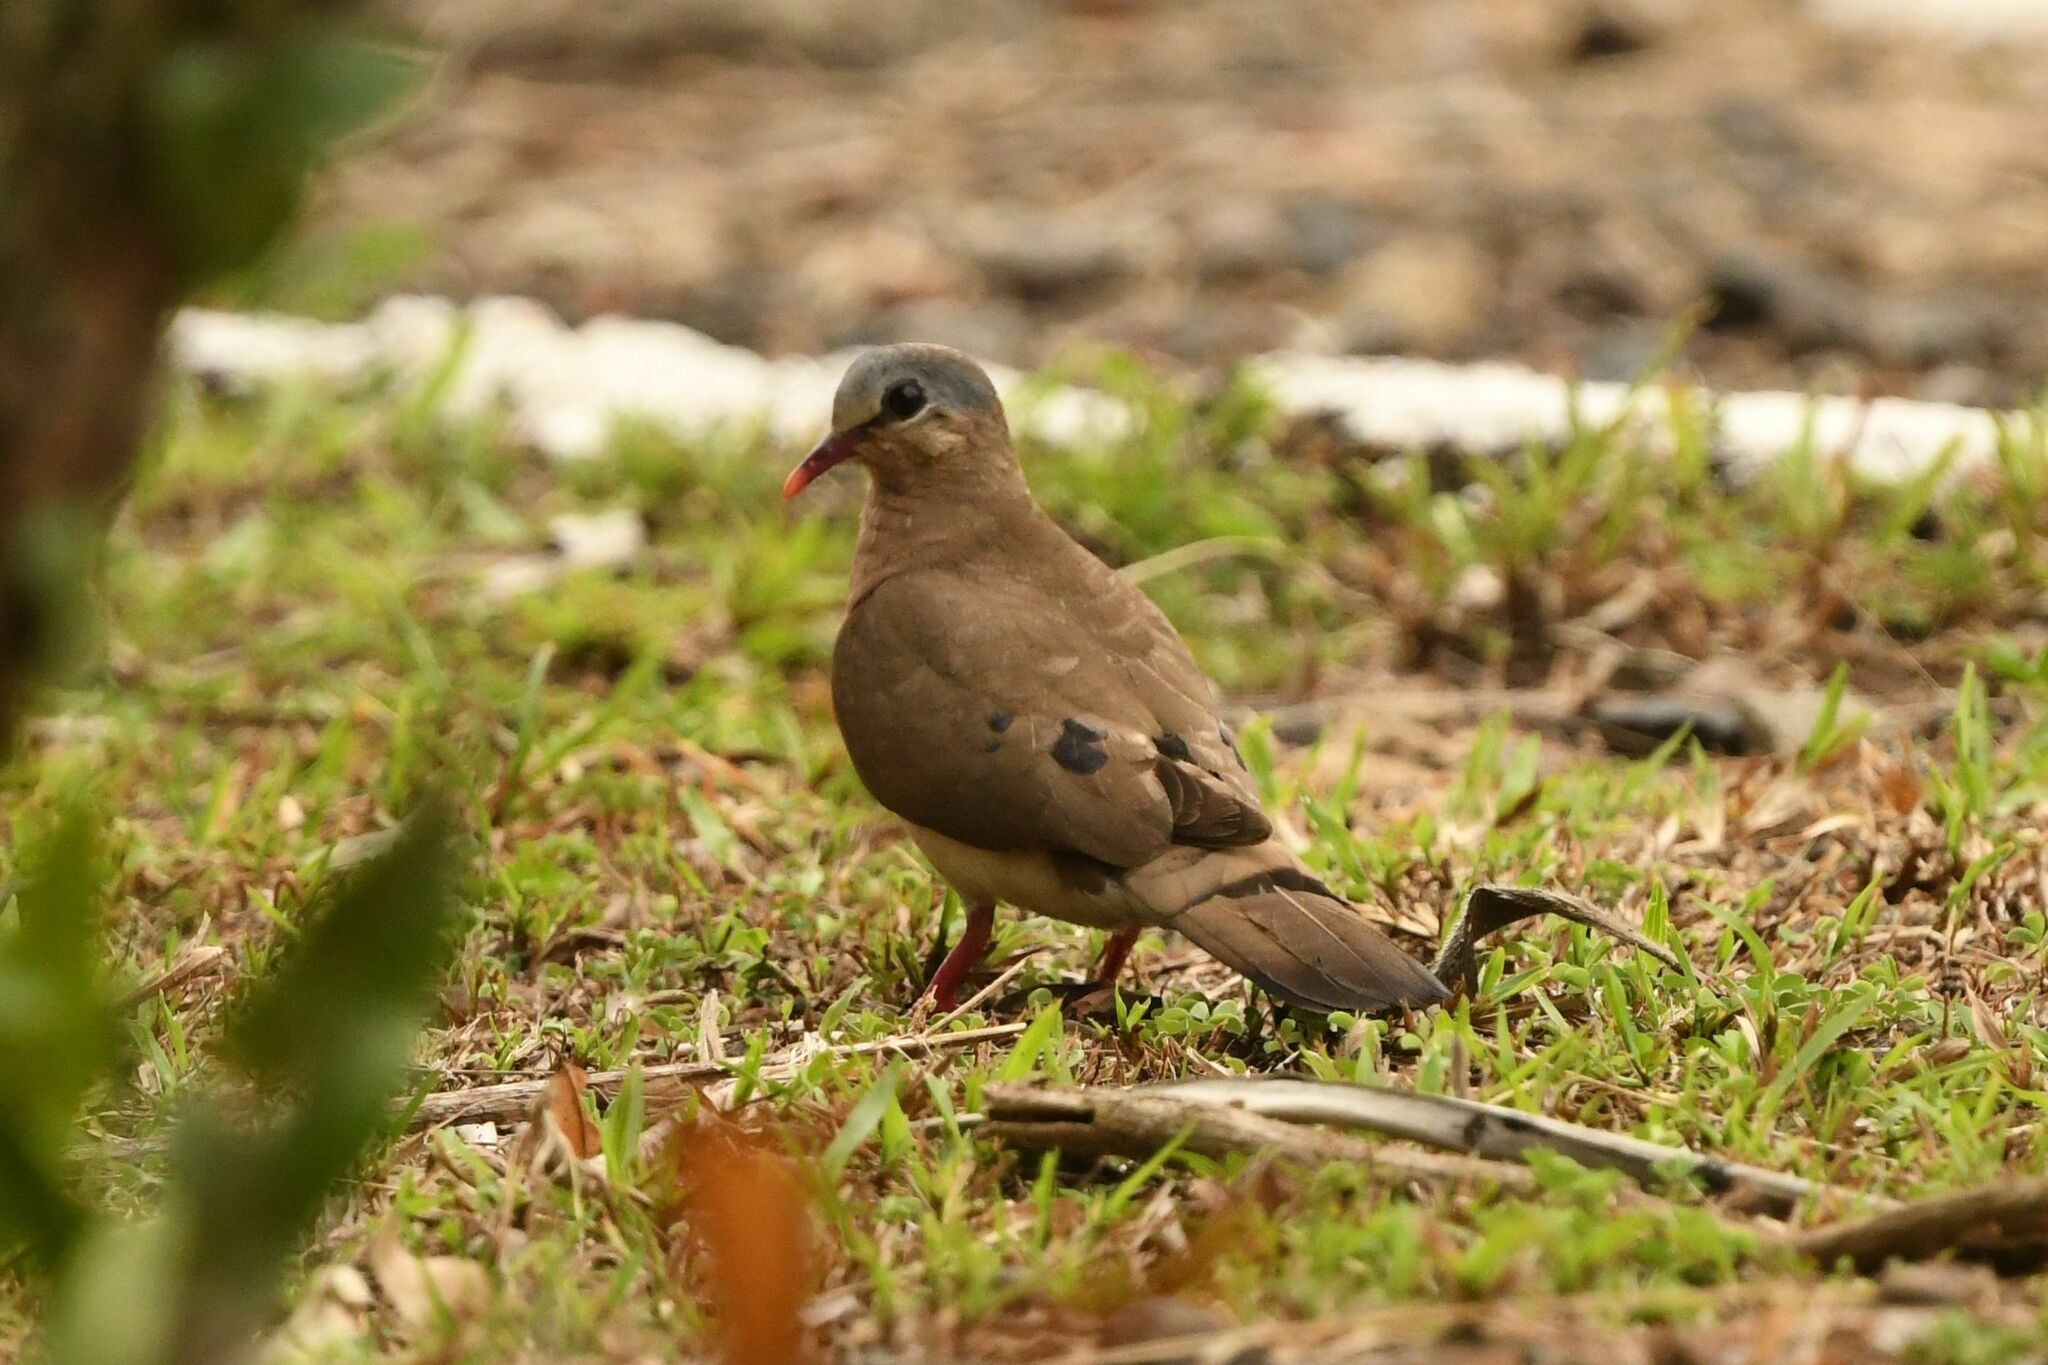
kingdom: Animalia
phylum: Chordata
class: Aves
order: Columbiformes
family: Columbidae
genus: Turtur
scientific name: Turtur afer
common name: Blue-spotted wood dove
